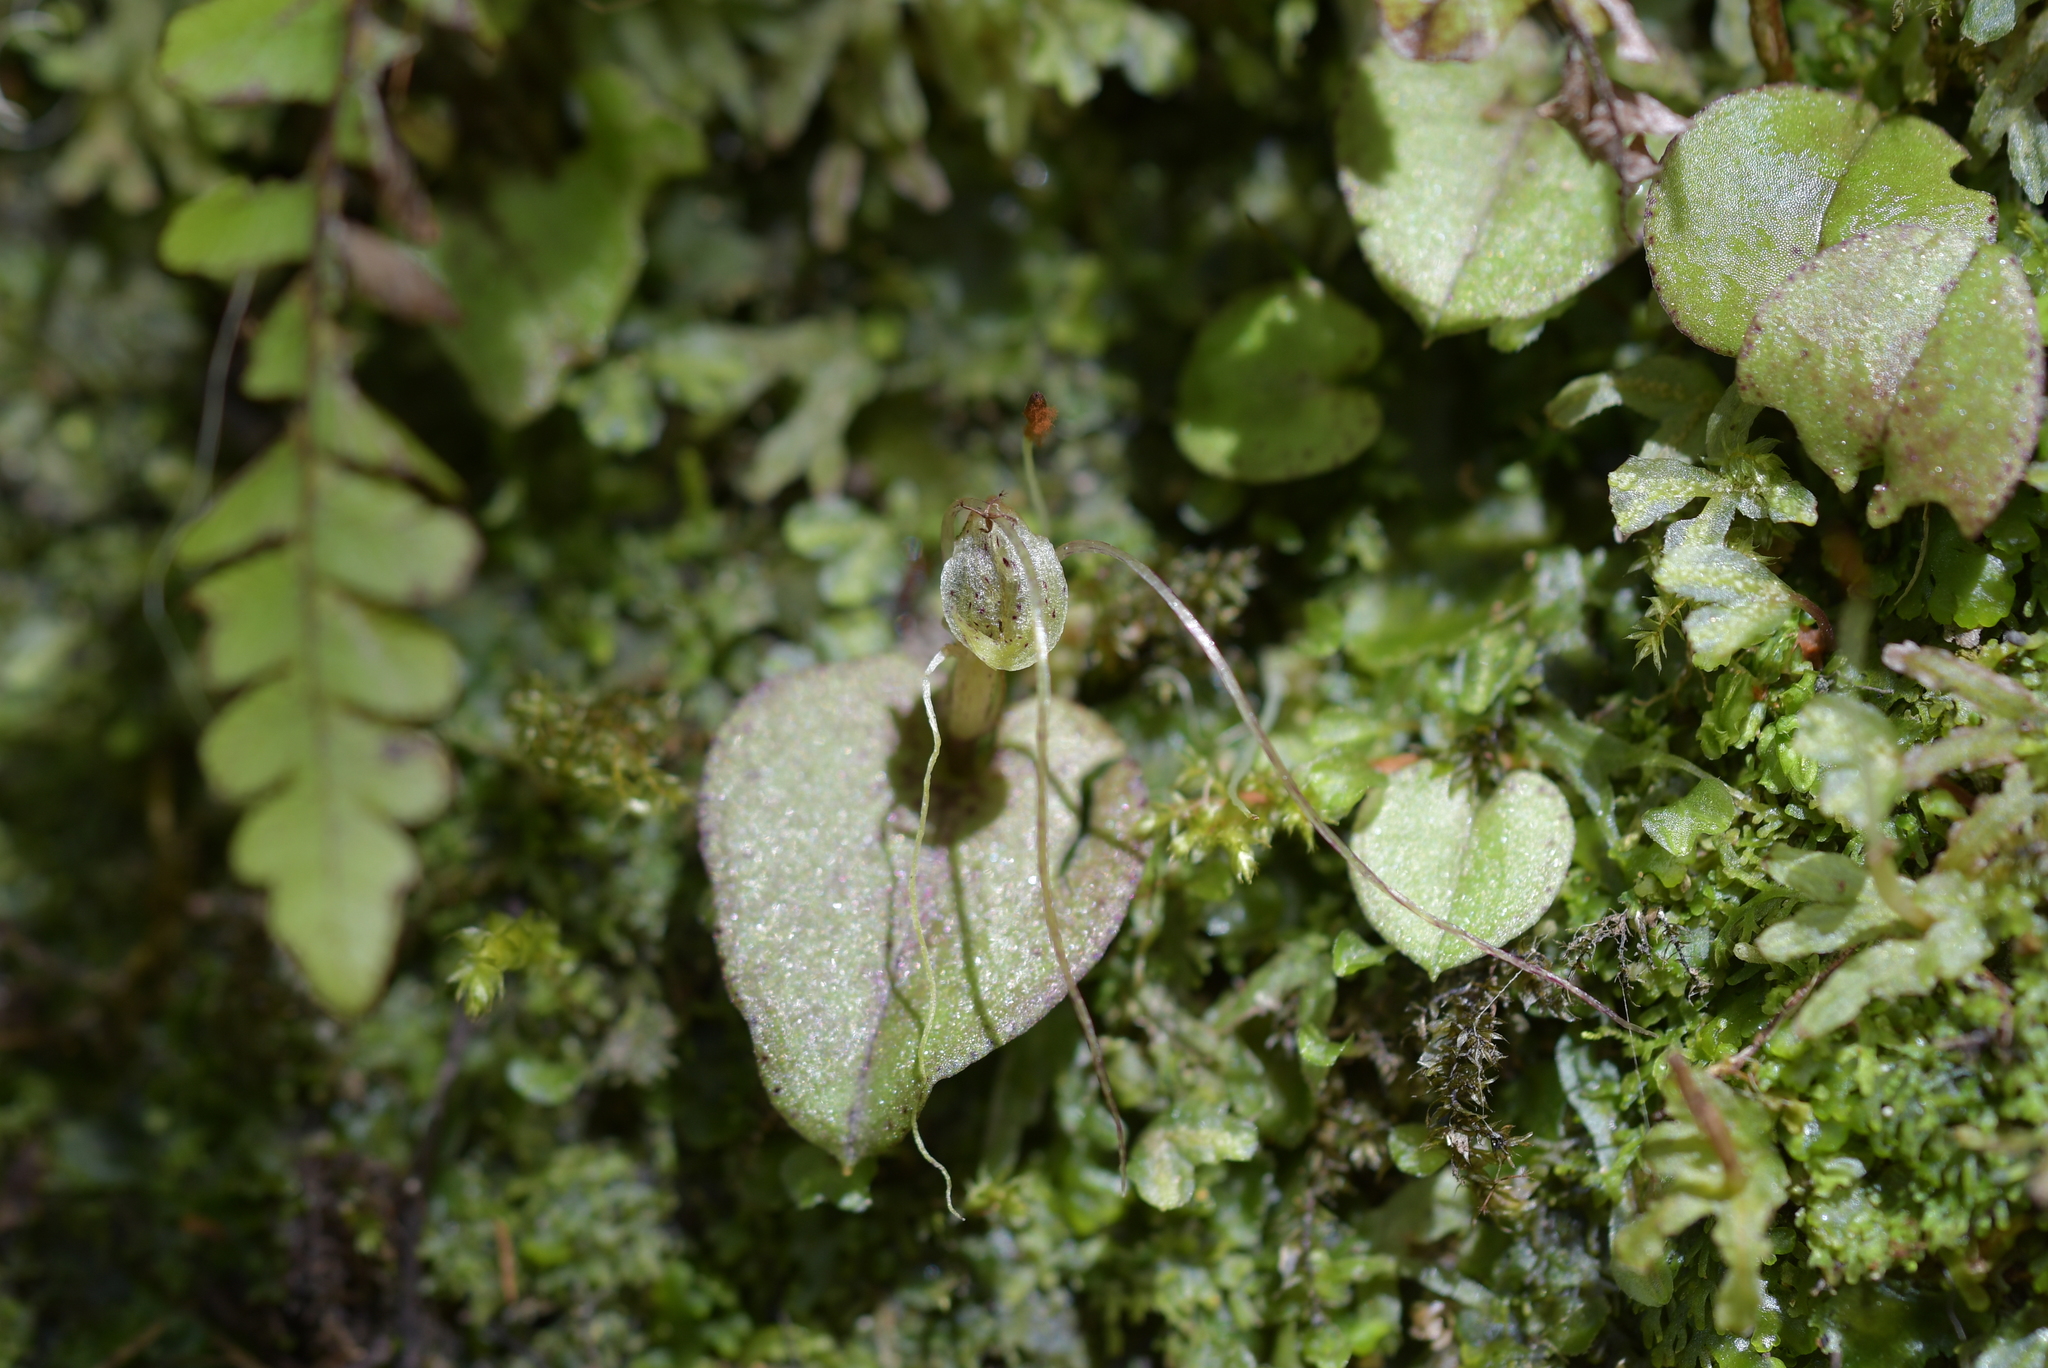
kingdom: Plantae
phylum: Tracheophyta
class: Liliopsida
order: Asparagales
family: Orchidaceae
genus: Corybas
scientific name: Corybas rivularis
